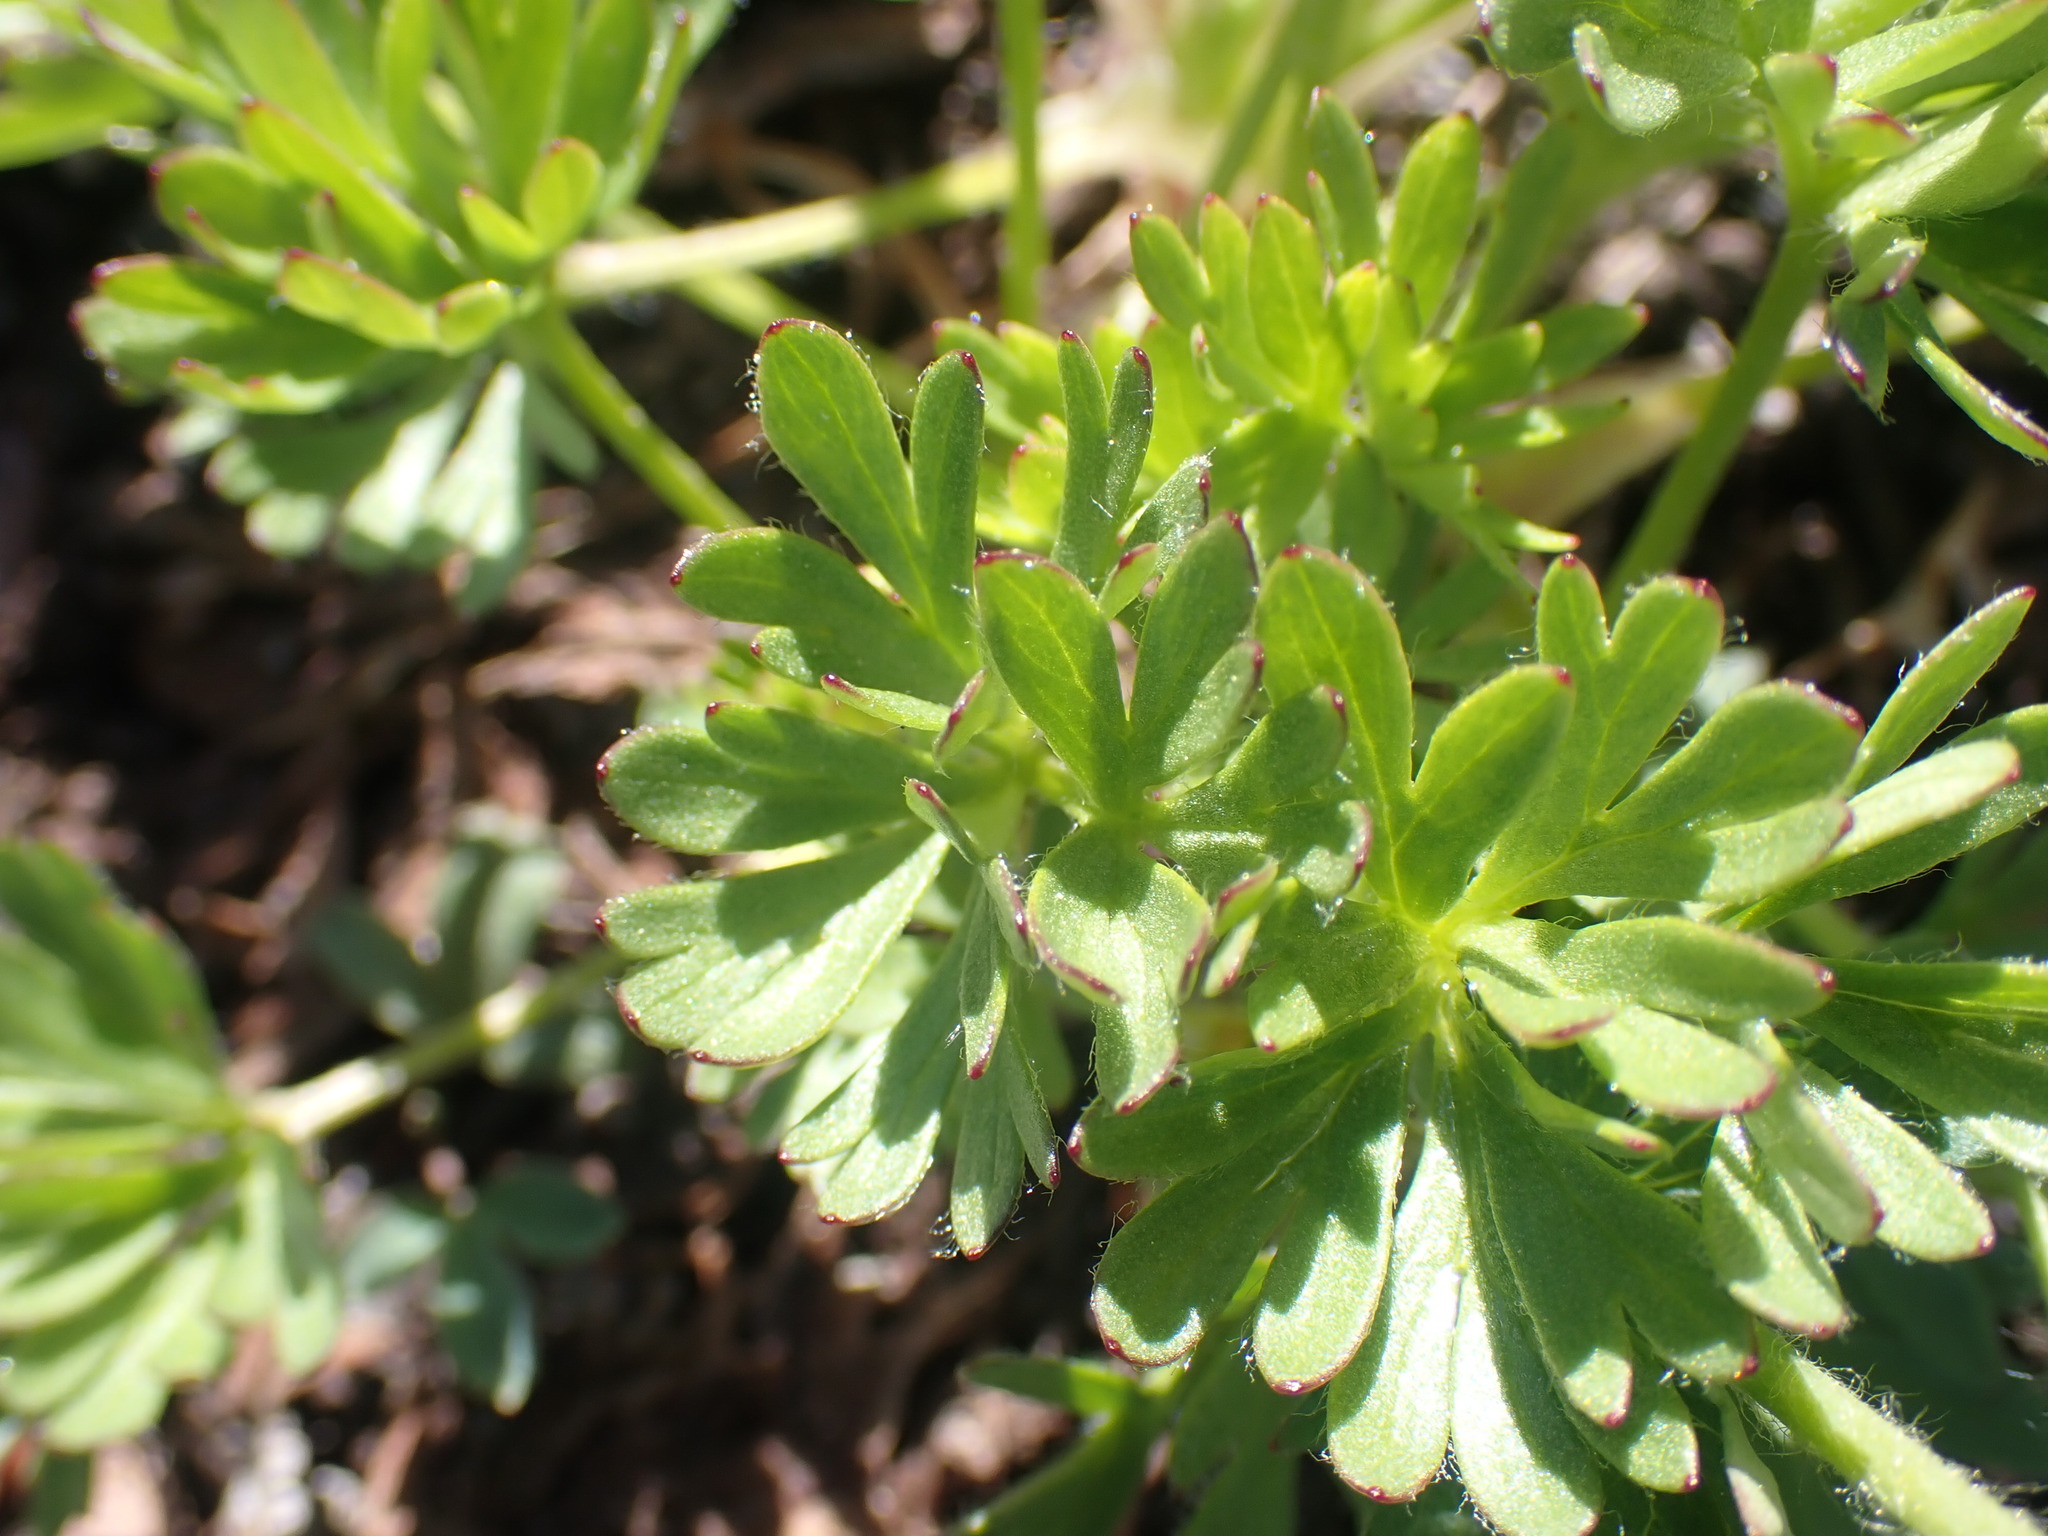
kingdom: Plantae
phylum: Tracheophyta
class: Magnoliopsida
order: Ranunculales
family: Ranunculaceae
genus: Anemone
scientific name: Anemone drummondii
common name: Drummond's anemone
